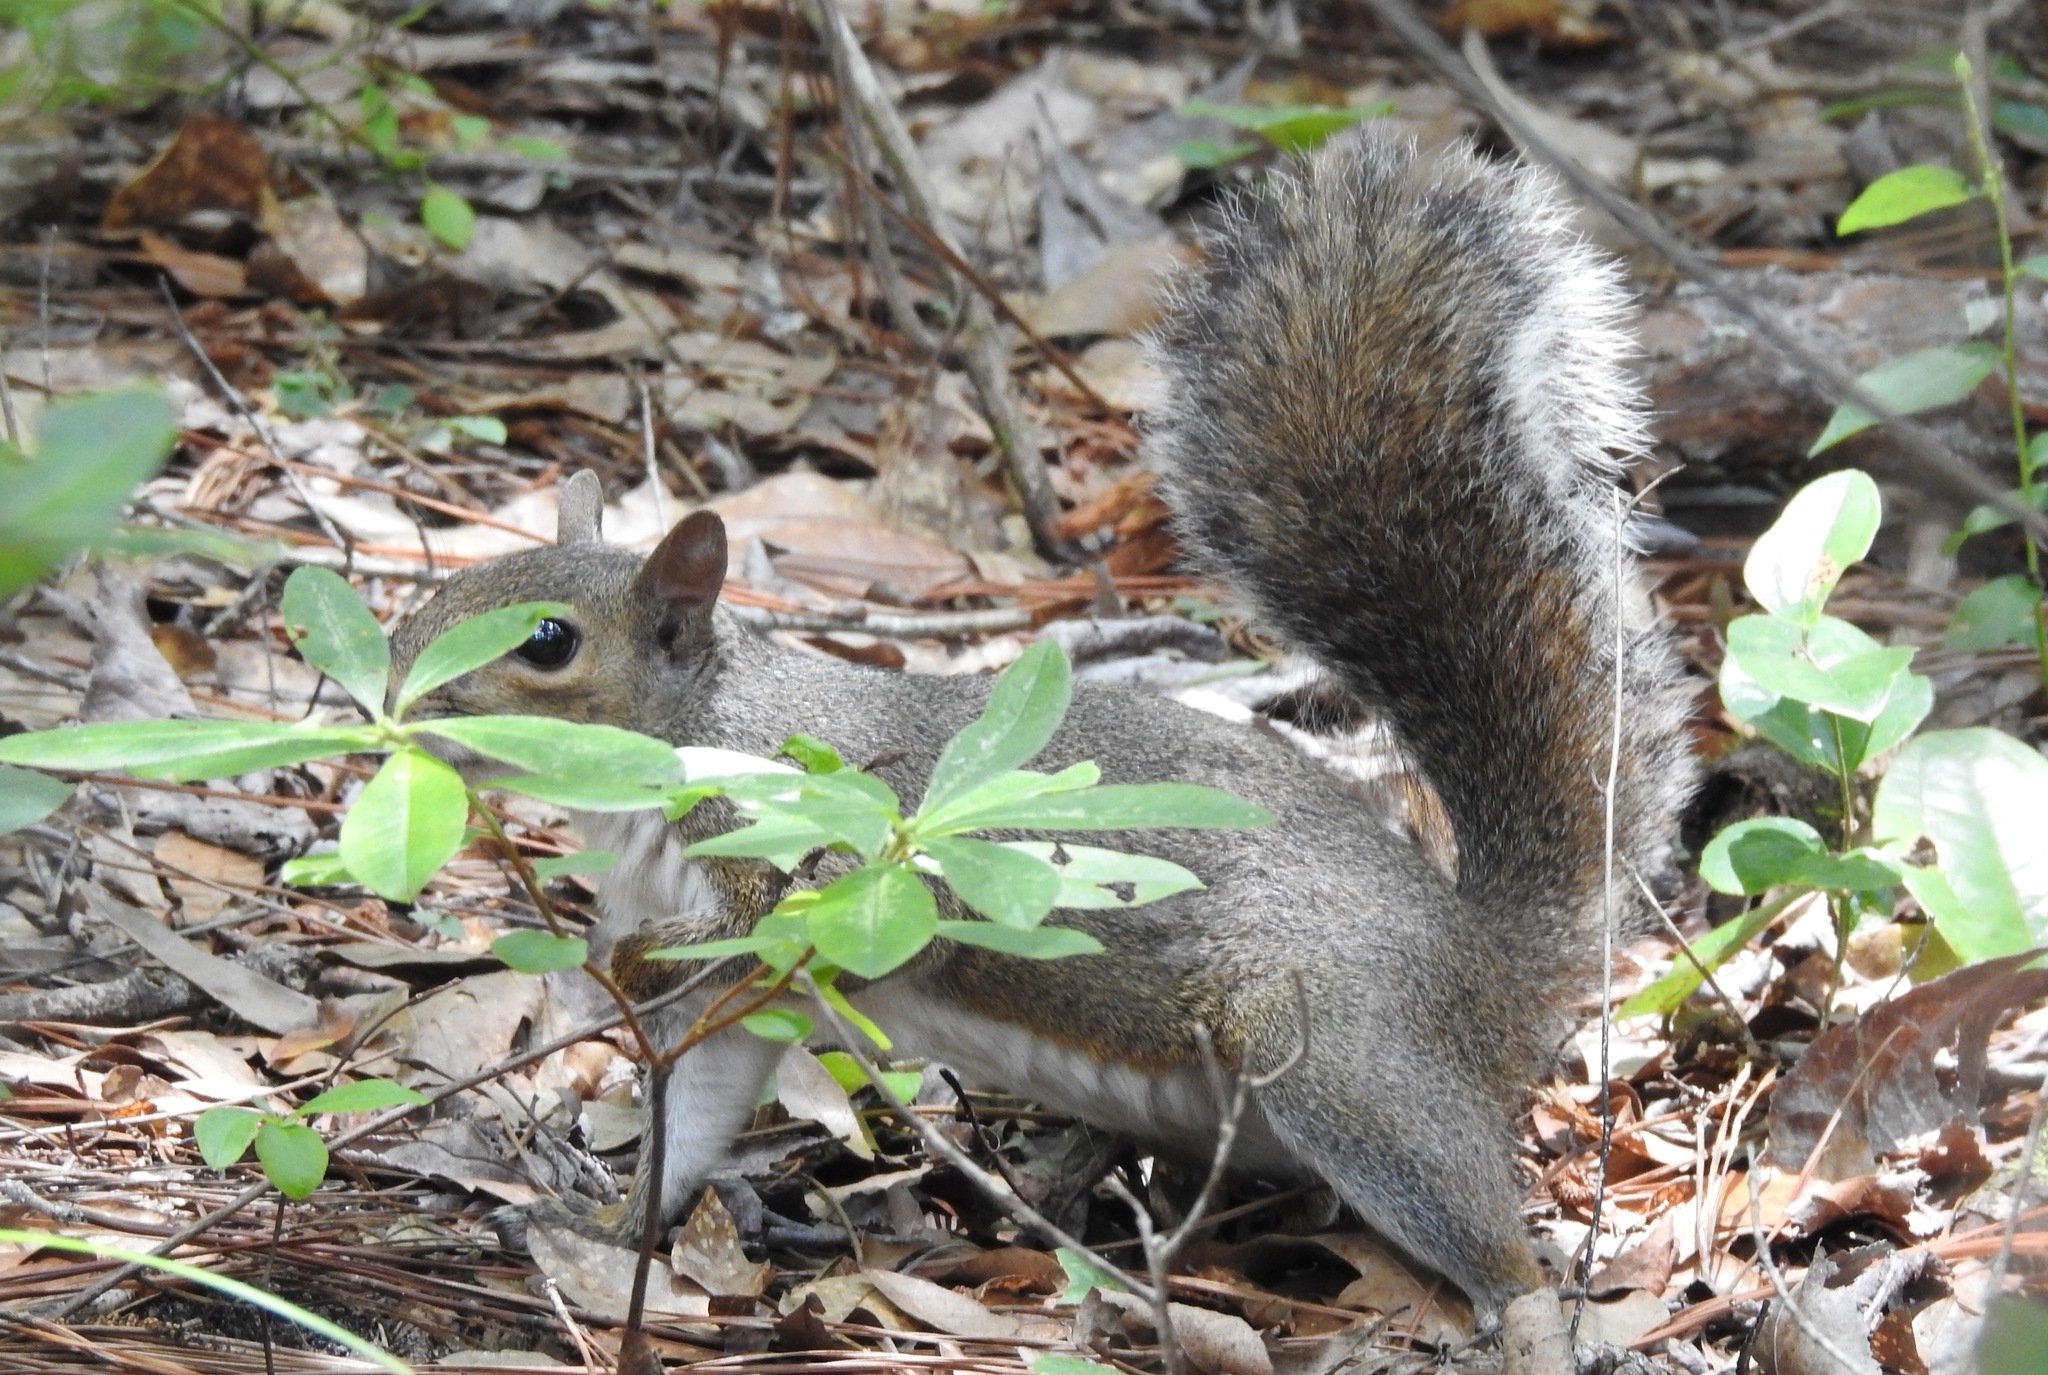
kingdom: Animalia
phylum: Chordata
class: Mammalia
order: Rodentia
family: Sciuridae
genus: Sciurus
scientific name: Sciurus carolinensis
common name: Eastern gray squirrel
